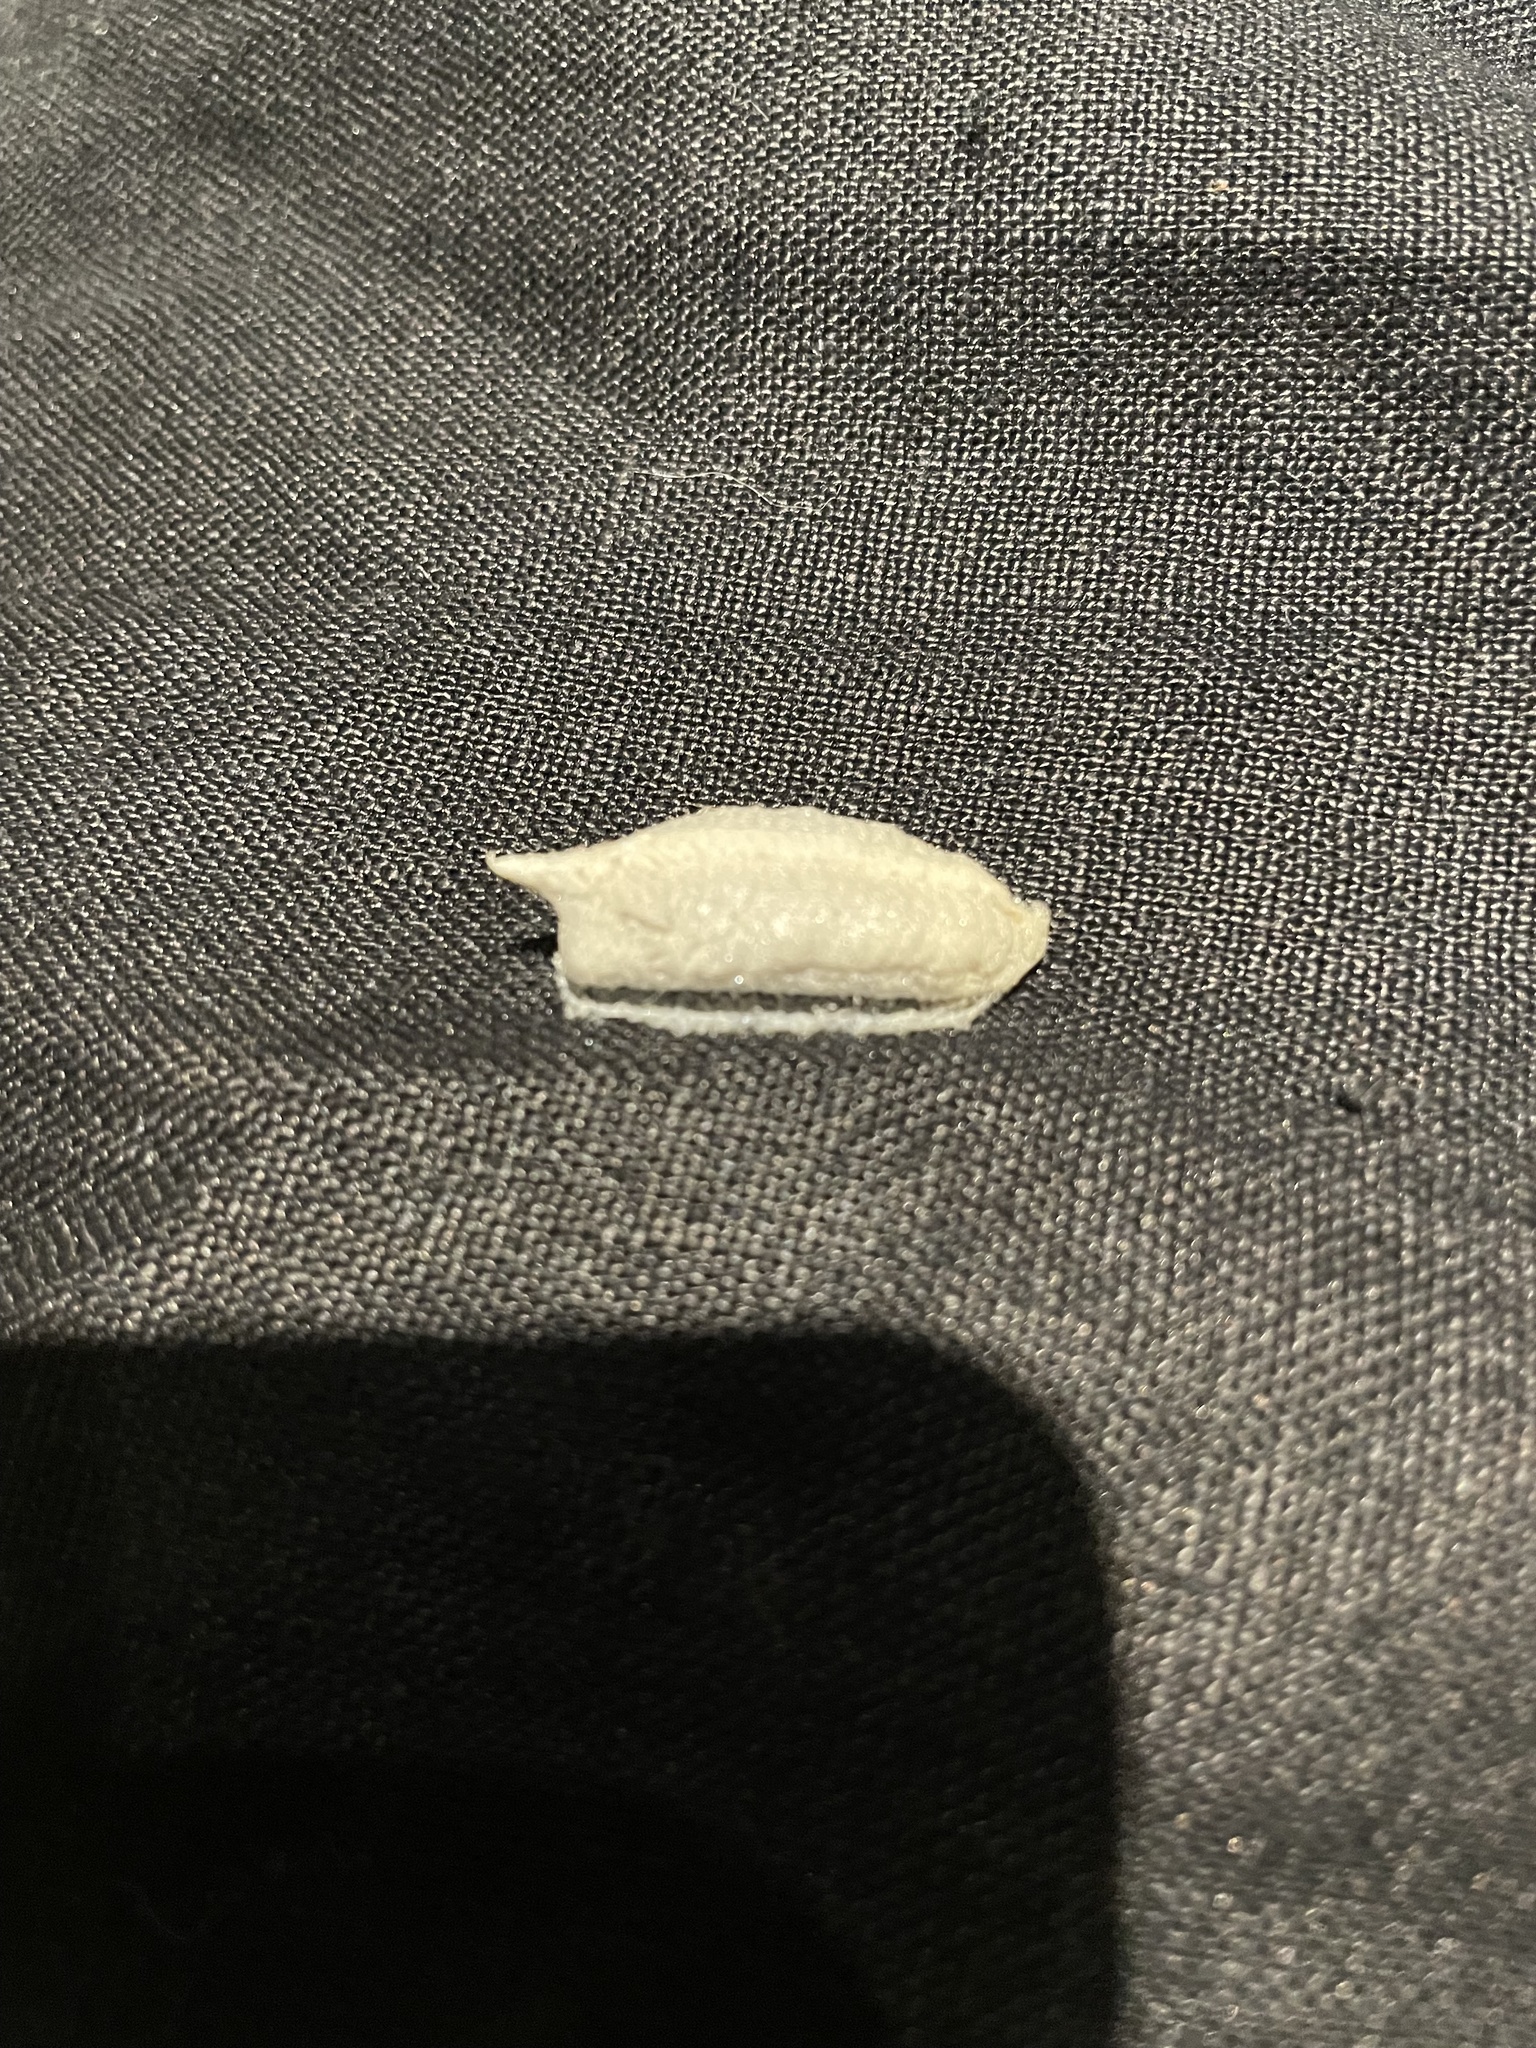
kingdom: Animalia
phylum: Arthropoda
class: Insecta
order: Mantodea
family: Miomantidae
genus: Miomantis
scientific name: Miomantis caffra
